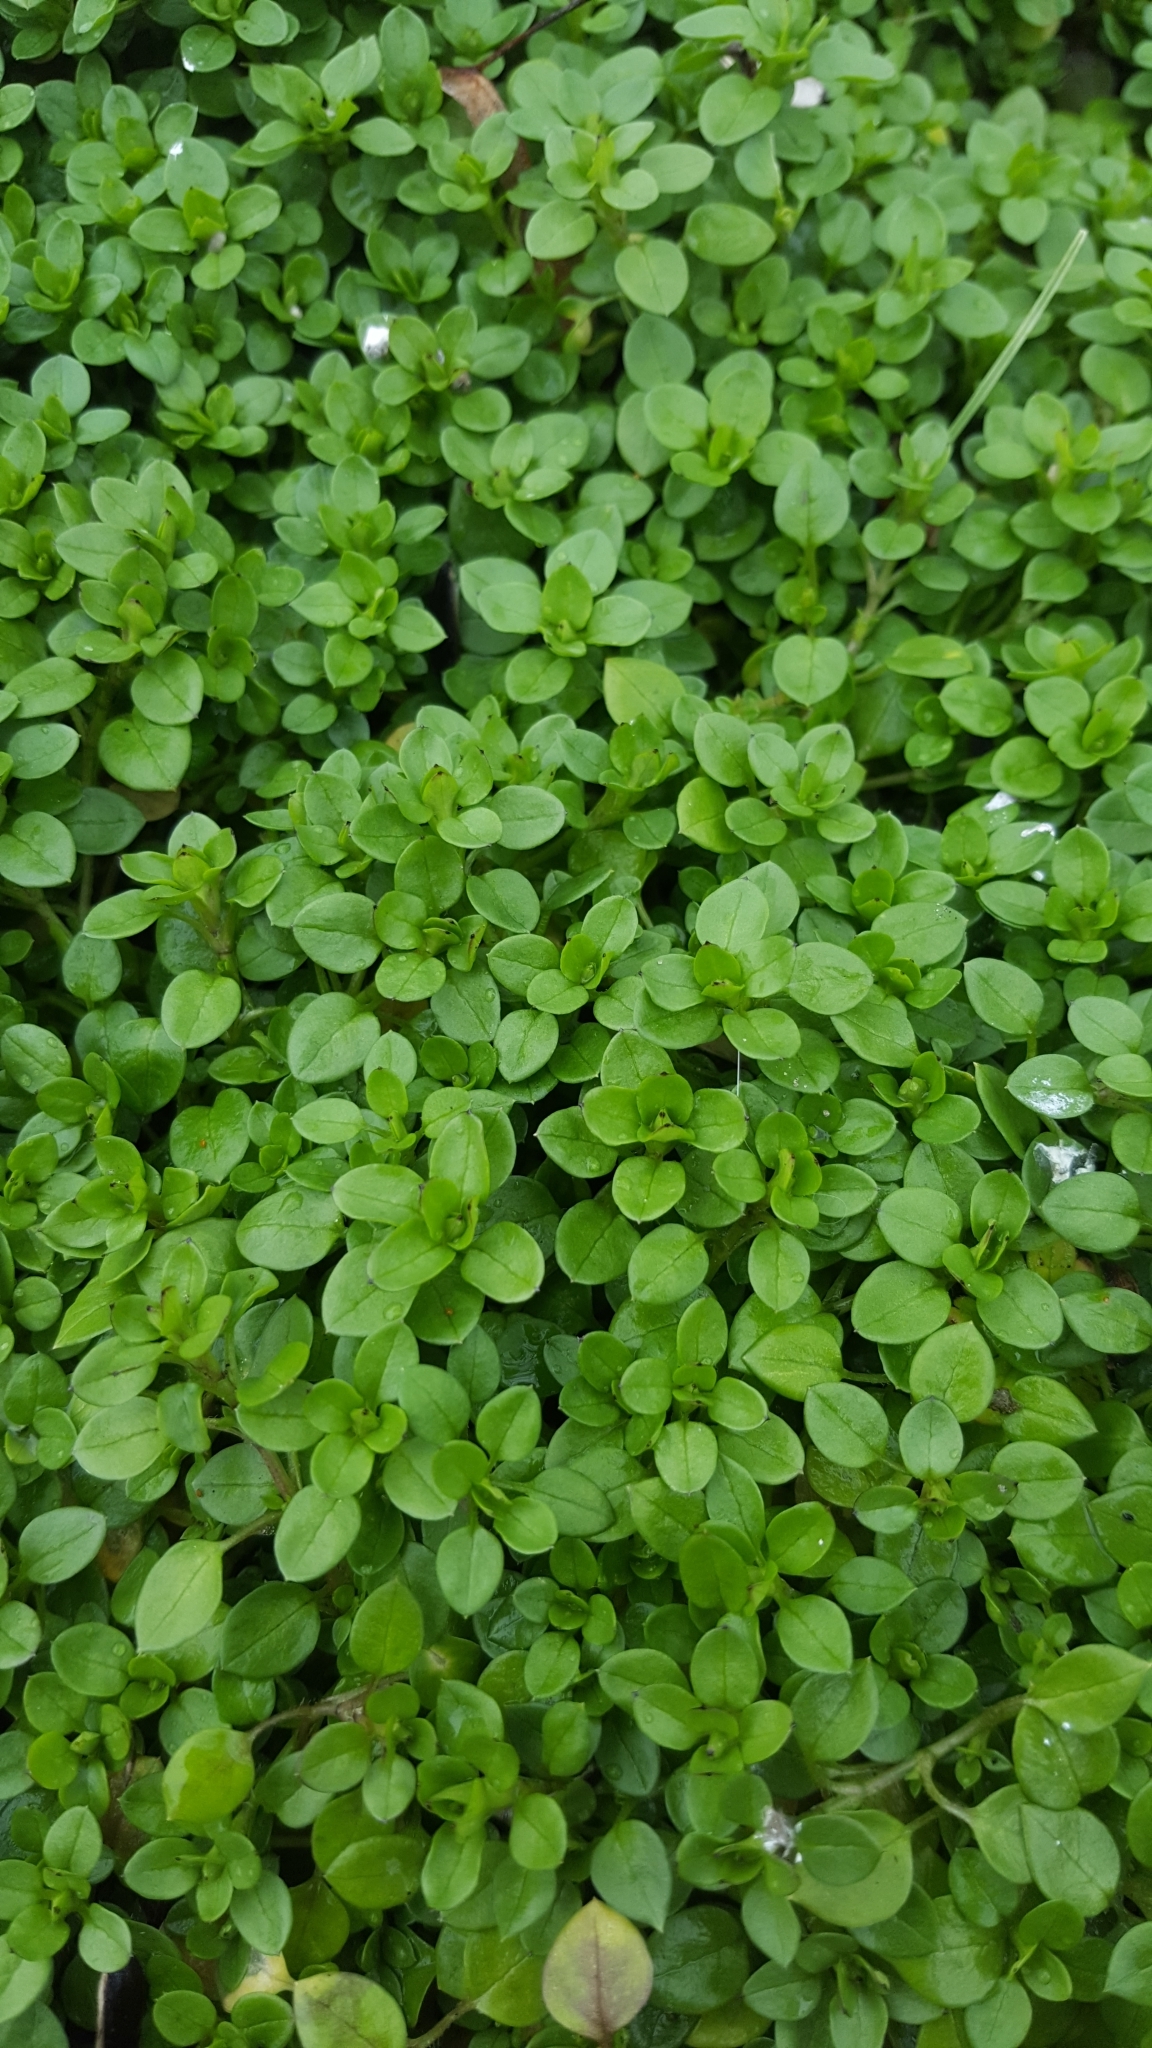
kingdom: Plantae
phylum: Tracheophyta
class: Magnoliopsida
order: Caryophyllales
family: Caryophyllaceae
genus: Stellaria
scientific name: Stellaria media
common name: Common chickweed
